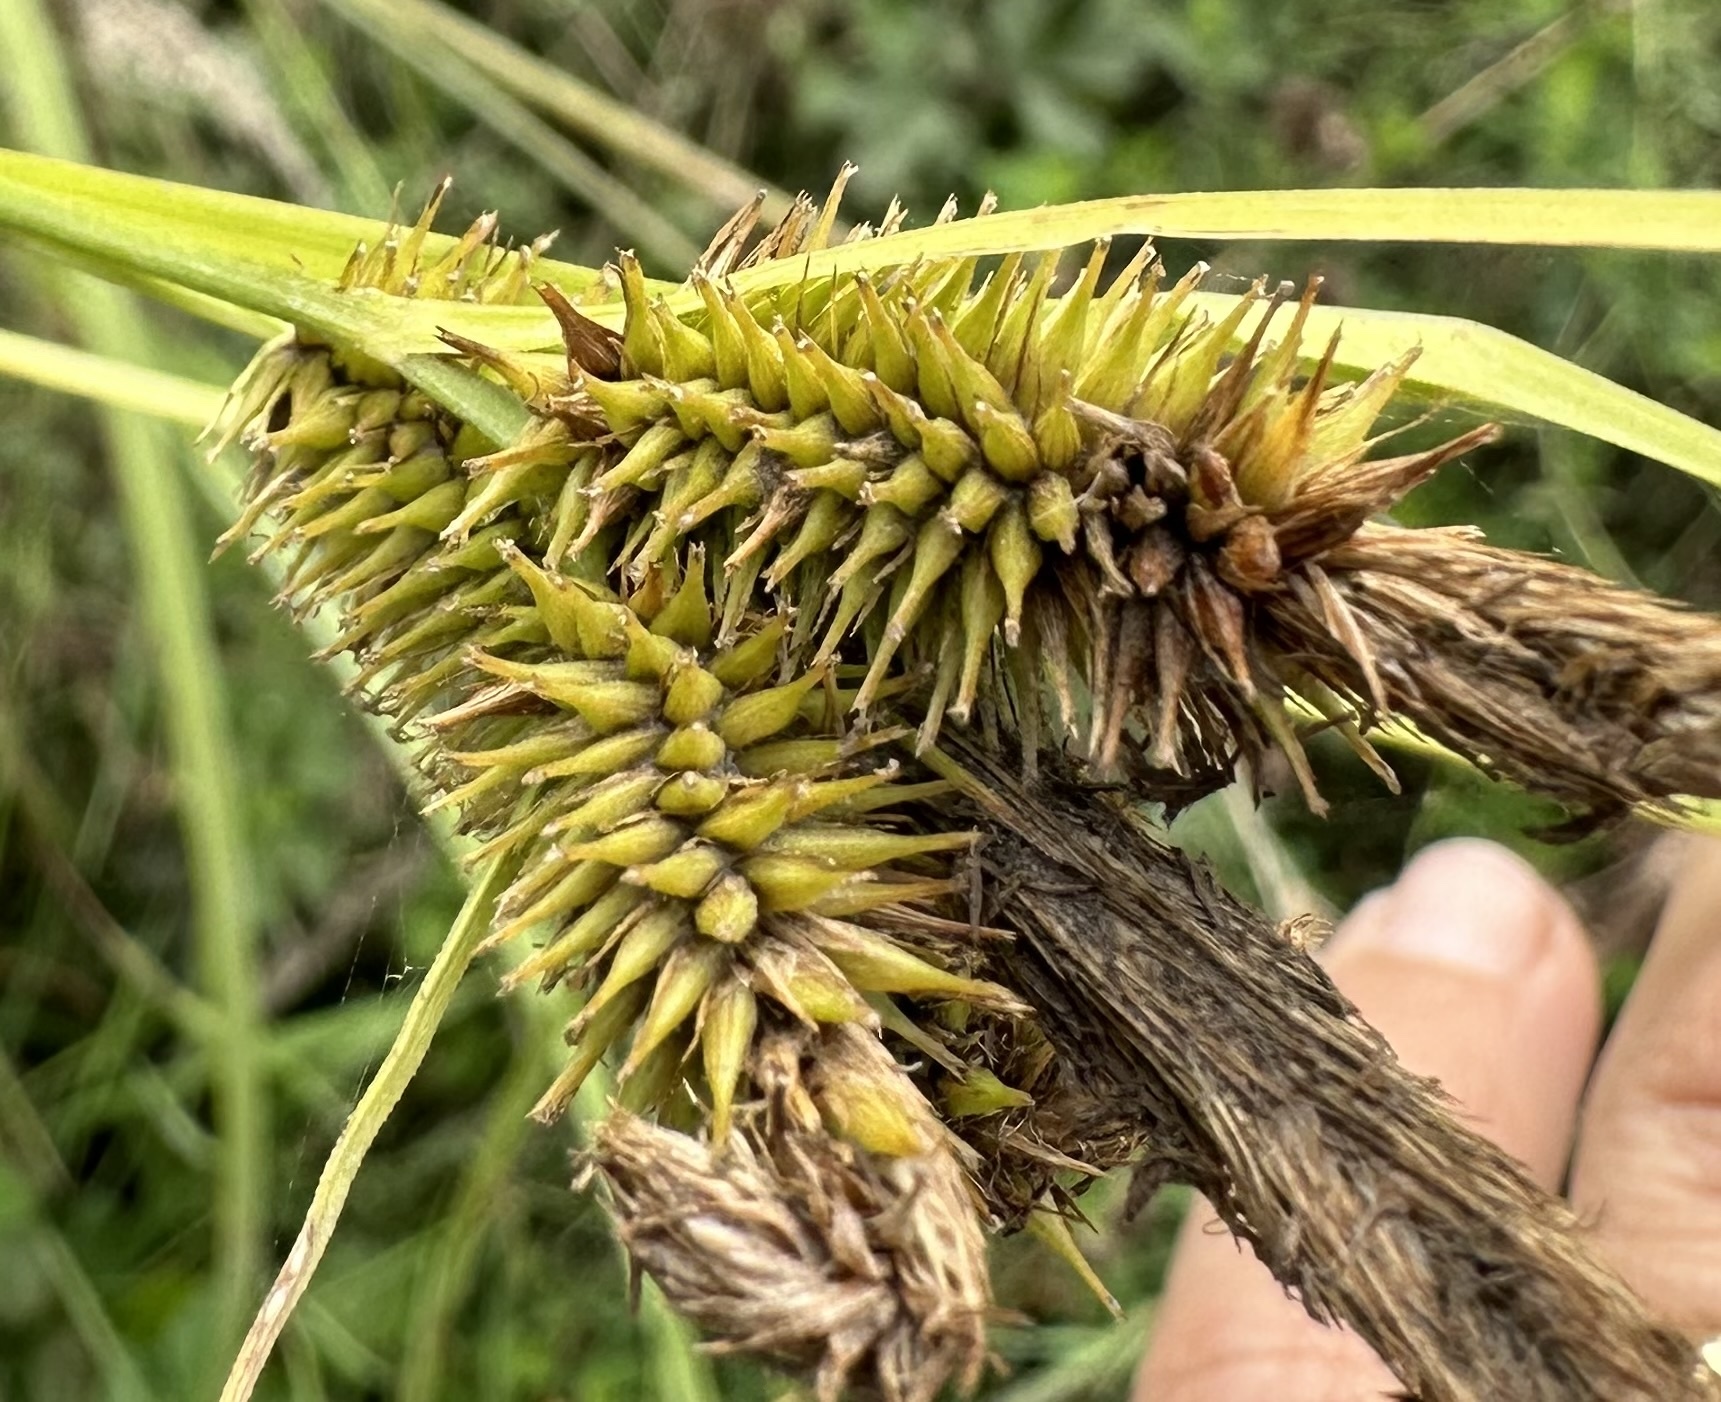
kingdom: Plantae
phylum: Tracheophyta
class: Liliopsida
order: Poales
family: Cyperaceae
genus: Carex
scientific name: Carex excelsa
